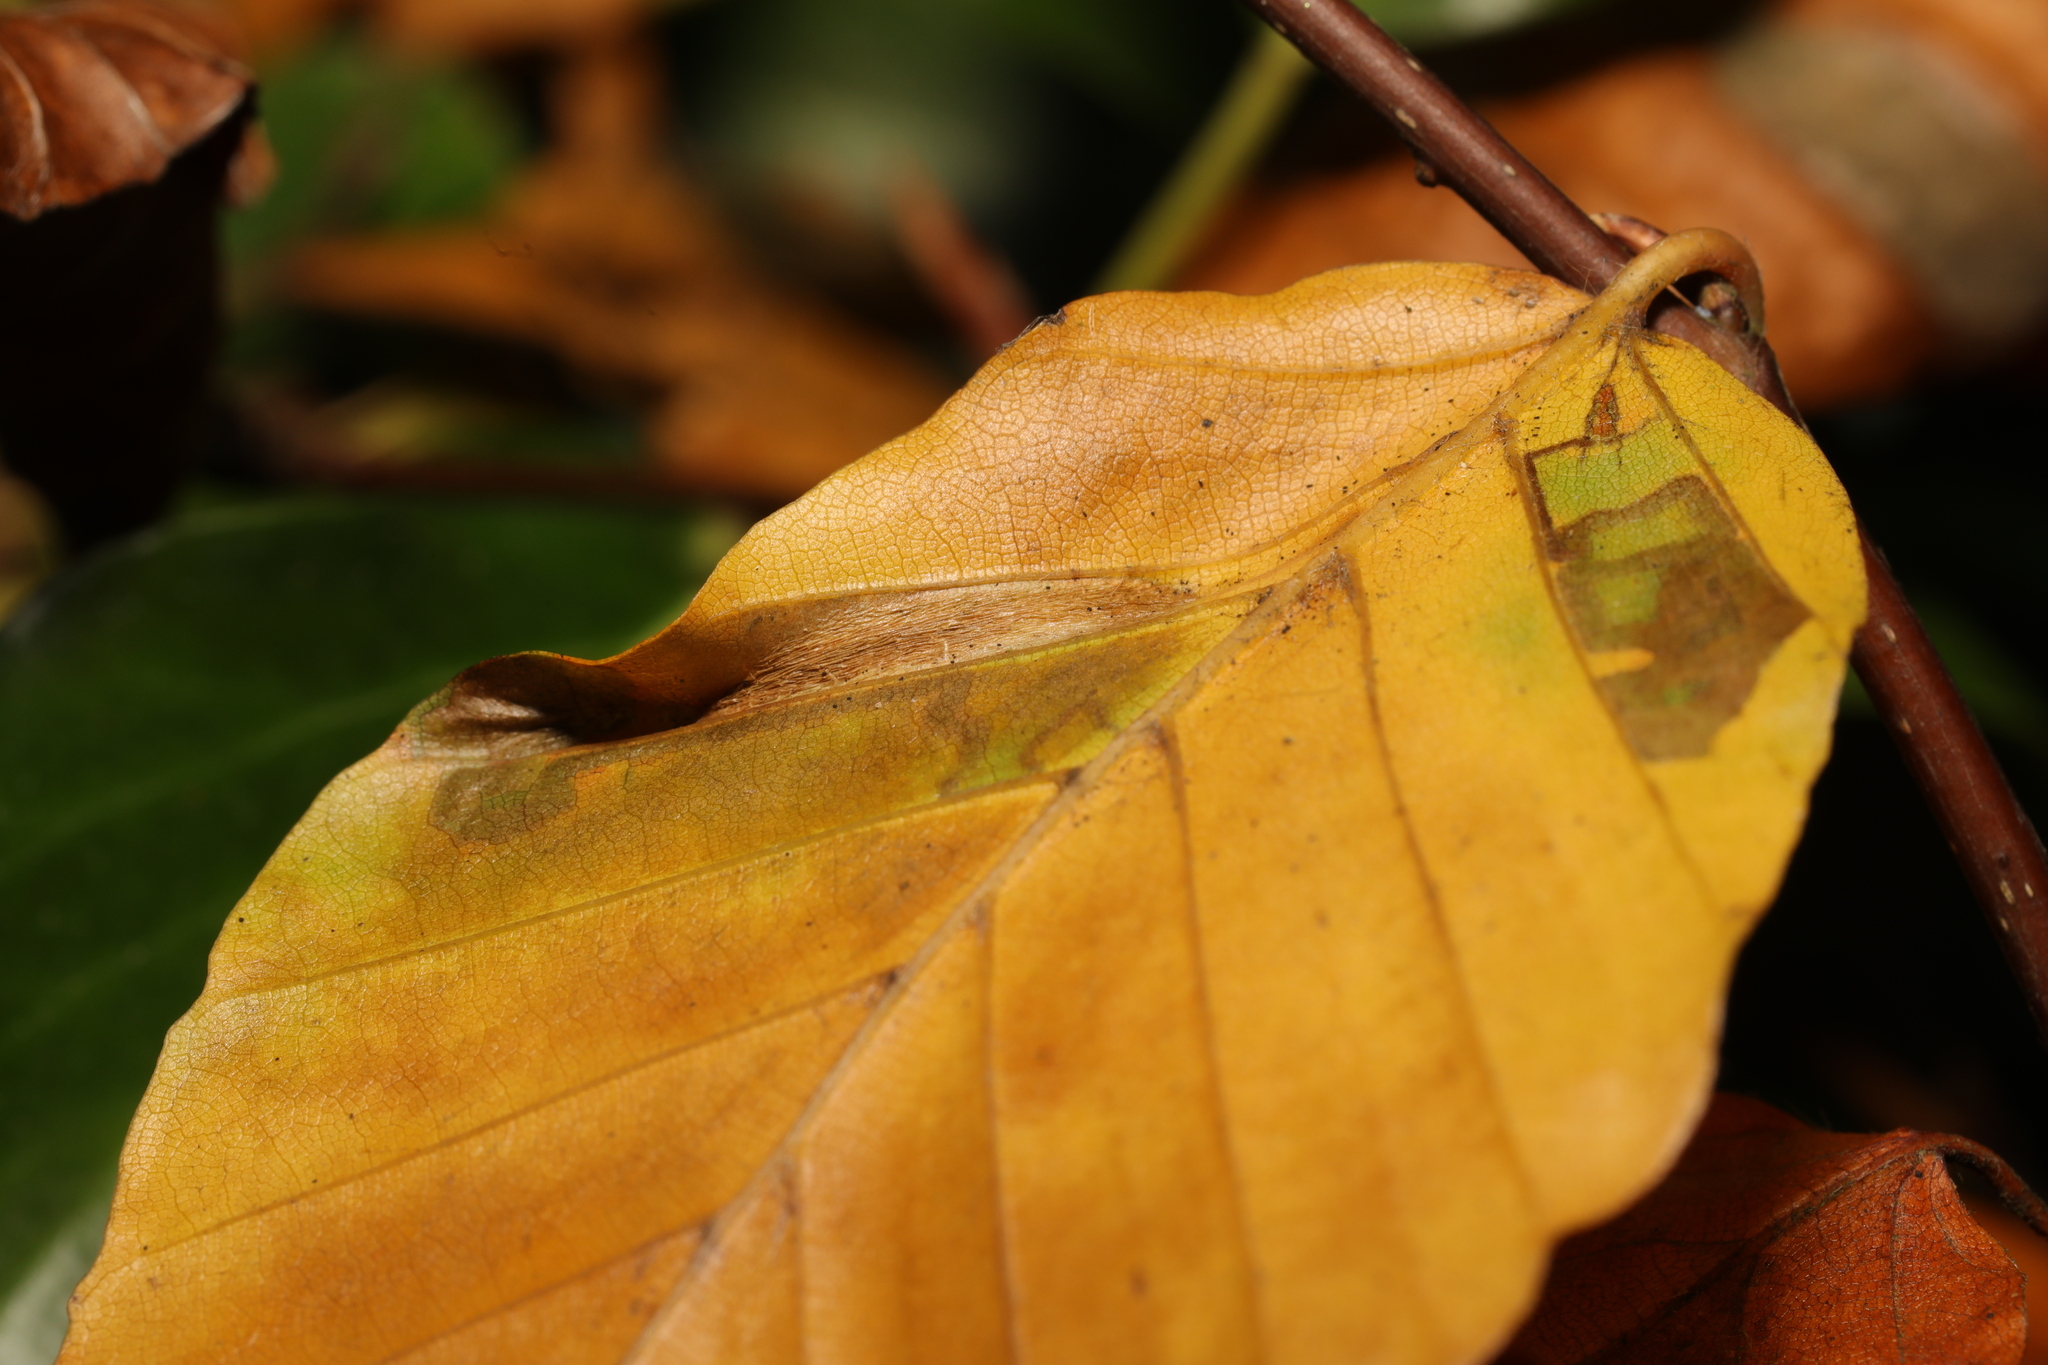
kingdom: Animalia
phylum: Arthropoda
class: Insecta
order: Lepidoptera
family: Gracillariidae
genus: Phyllonorycter
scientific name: Phyllonorycter maestingella
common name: Beech midget
